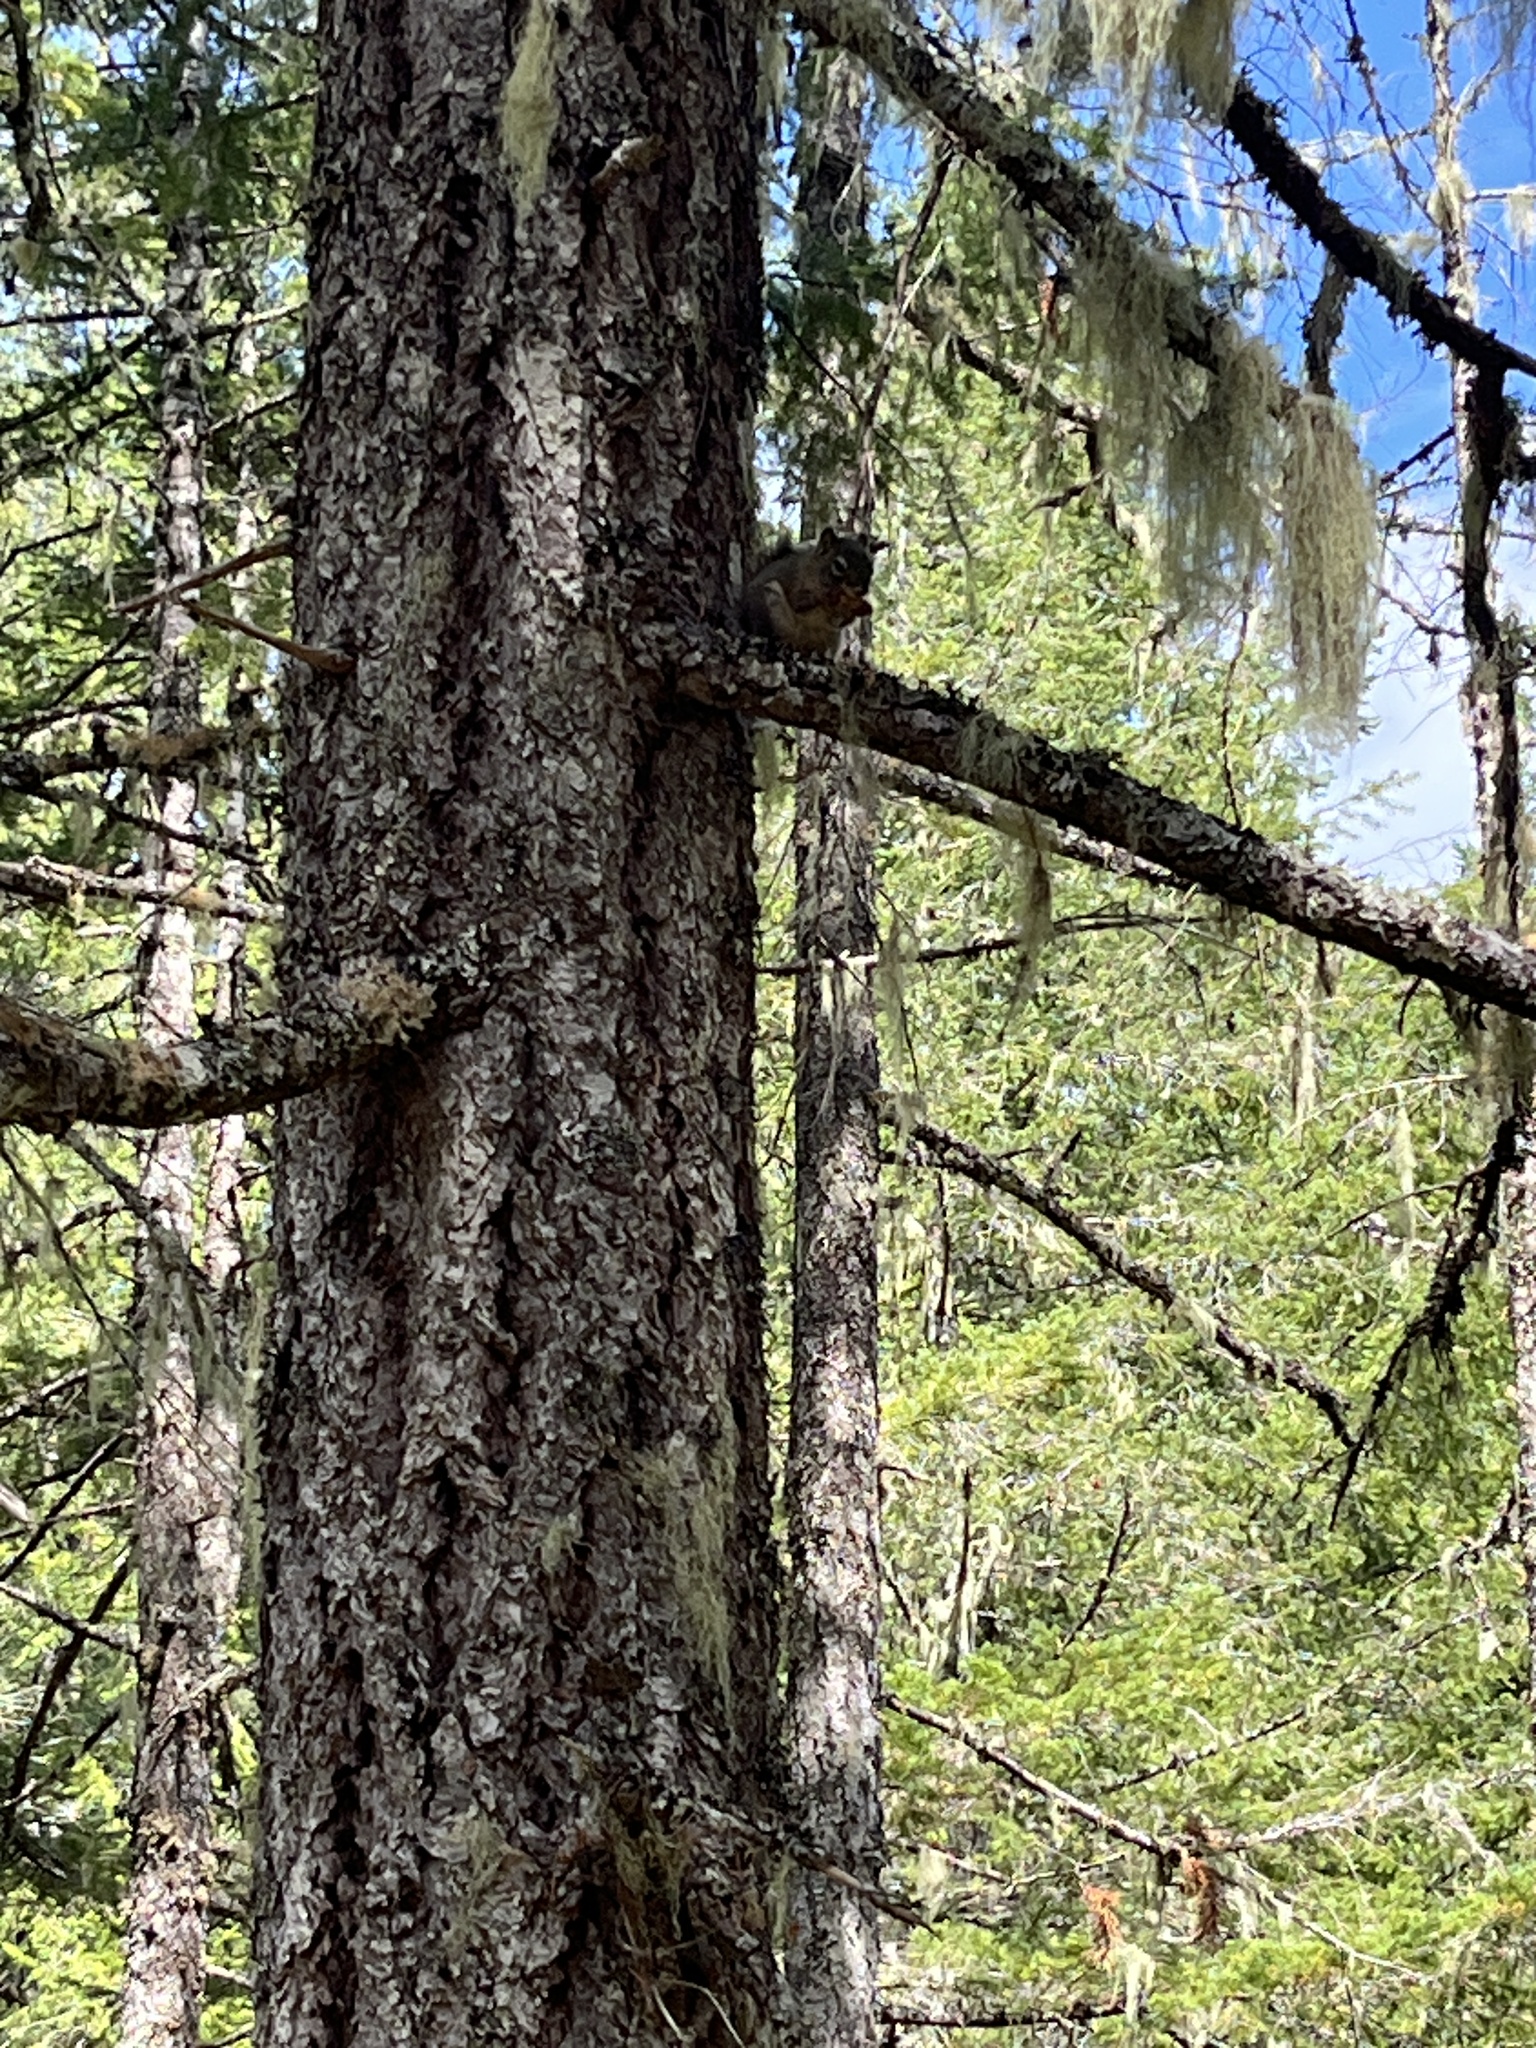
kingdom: Animalia
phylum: Chordata
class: Mammalia
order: Rodentia
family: Sciuridae
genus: Tamiasciurus
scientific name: Tamiasciurus hudsonicus
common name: Red squirrel
